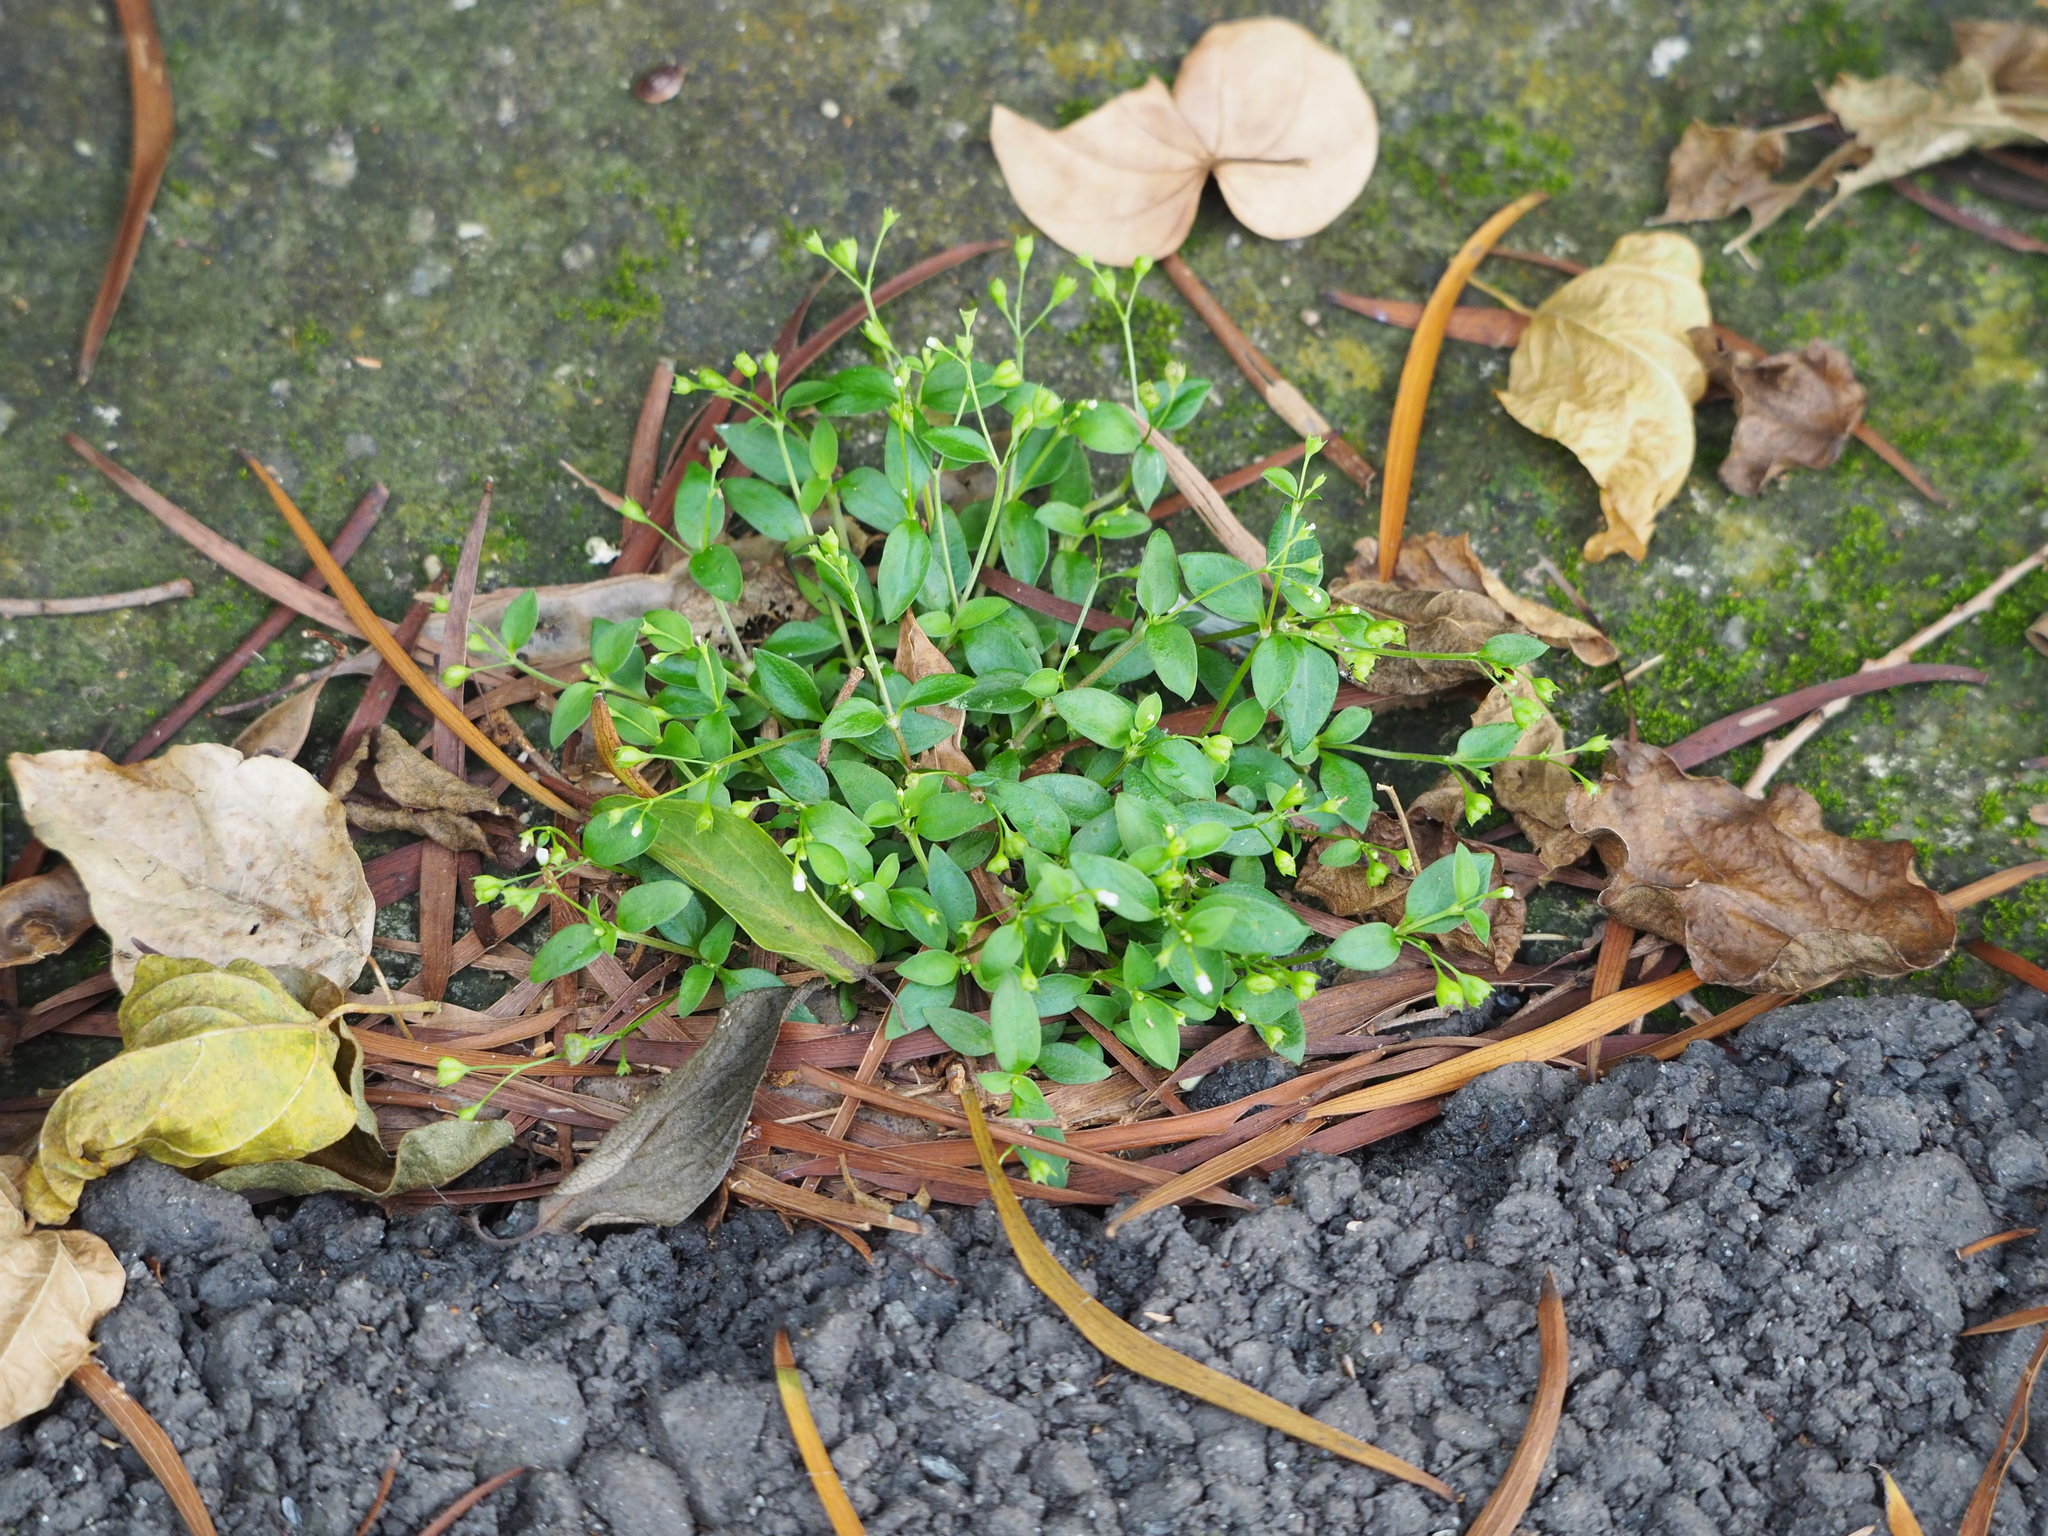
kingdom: Plantae
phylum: Tracheophyta
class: Magnoliopsida
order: Gentianales
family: Rubiaceae
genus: Leptopetalum
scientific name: Leptopetalum biflorum
